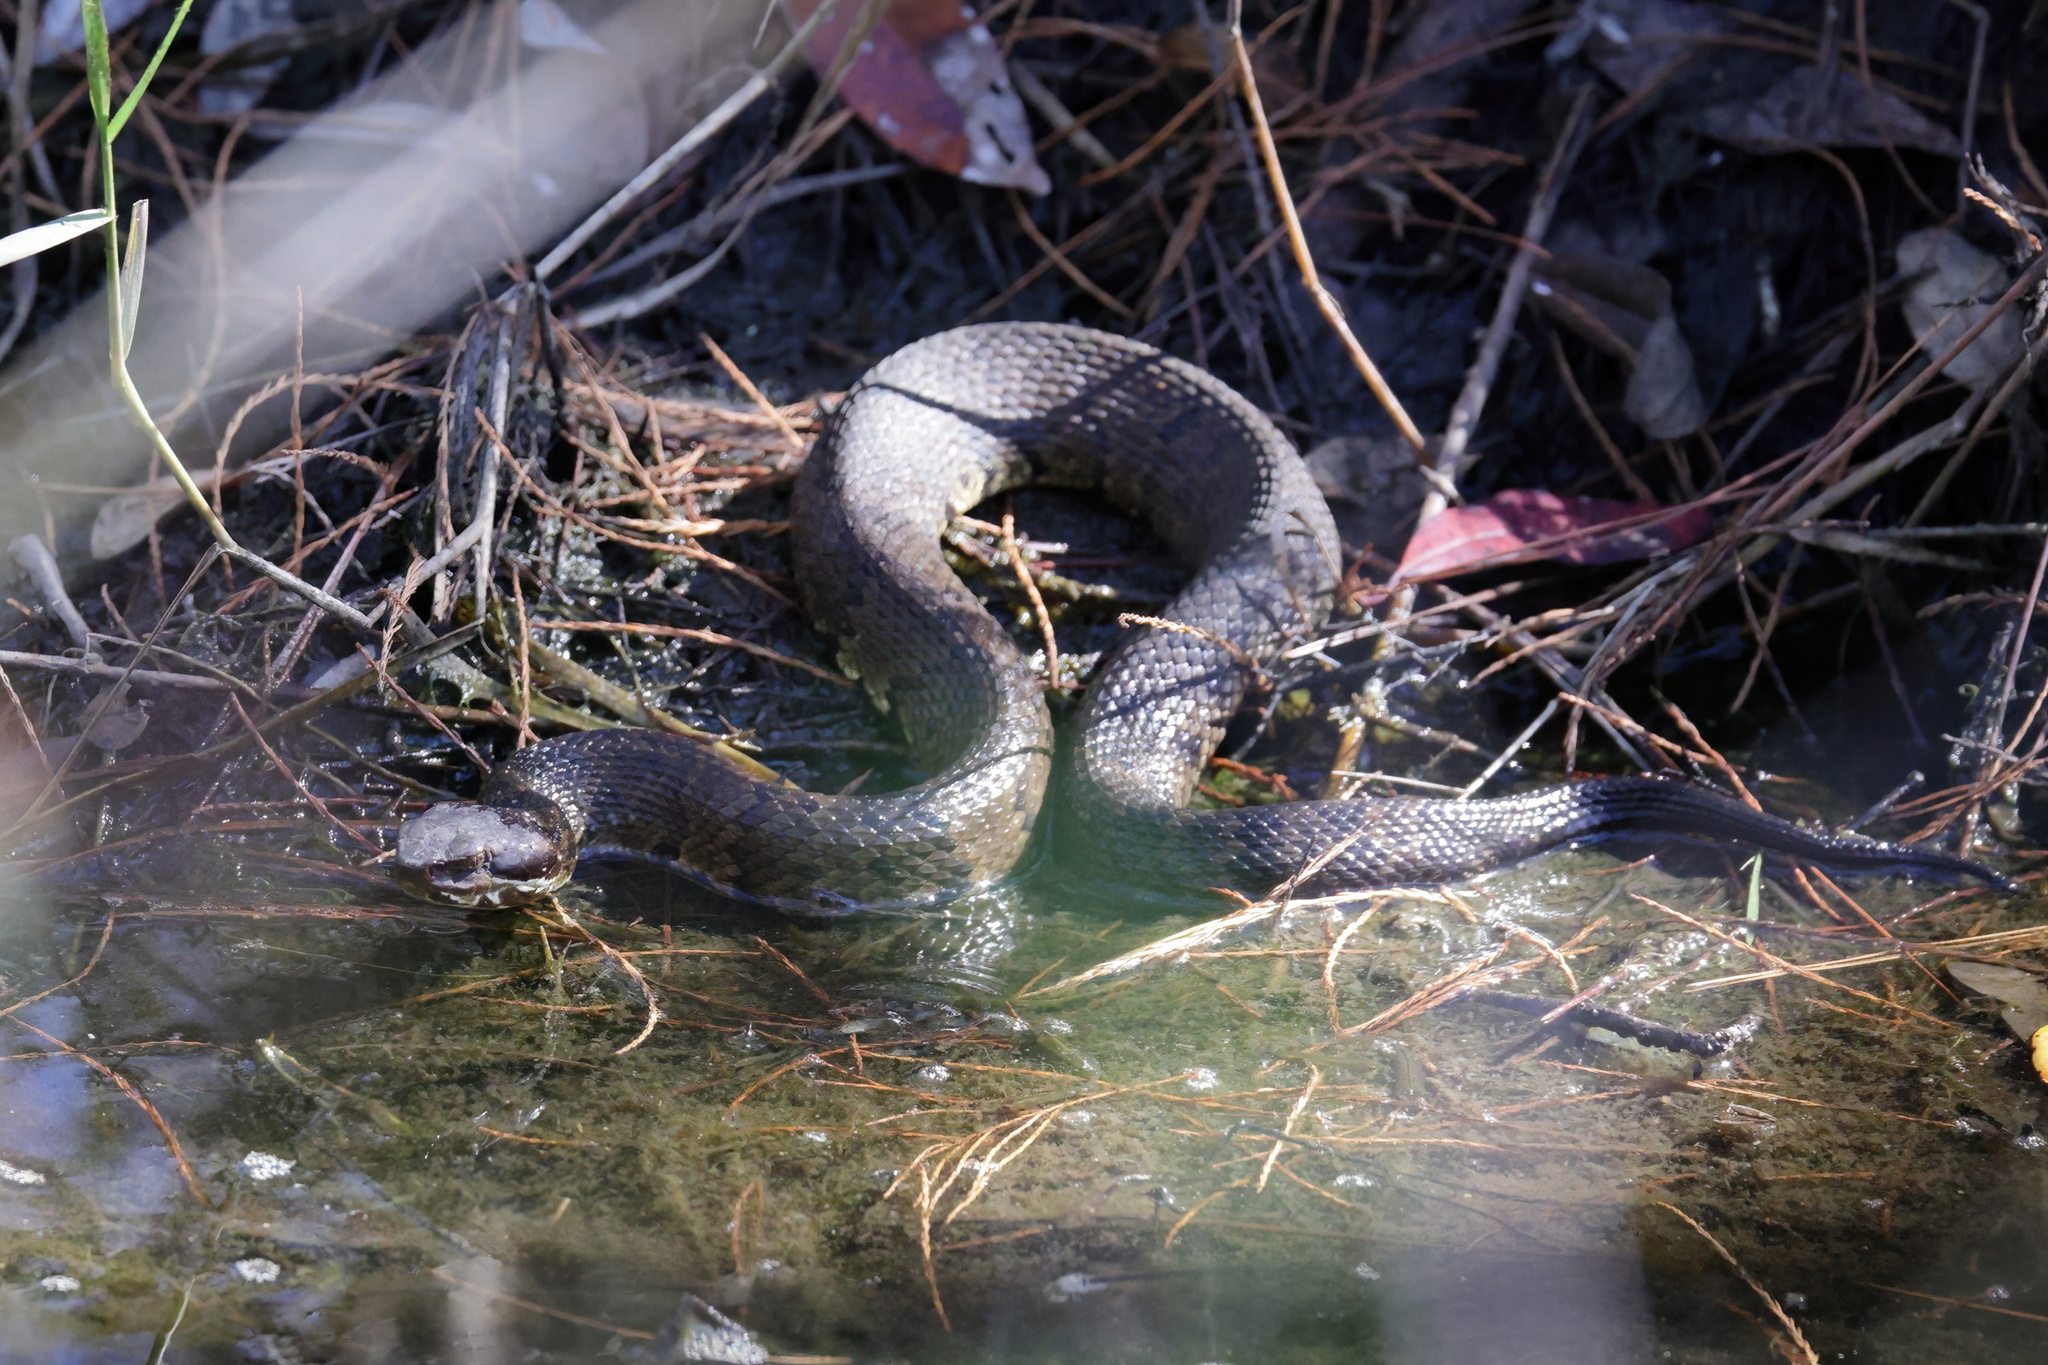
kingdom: Animalia
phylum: Chordata
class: Squamata
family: Viperidae
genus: Agkistrodon
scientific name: Agkistrodon piscivorus
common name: Cottonmouth
